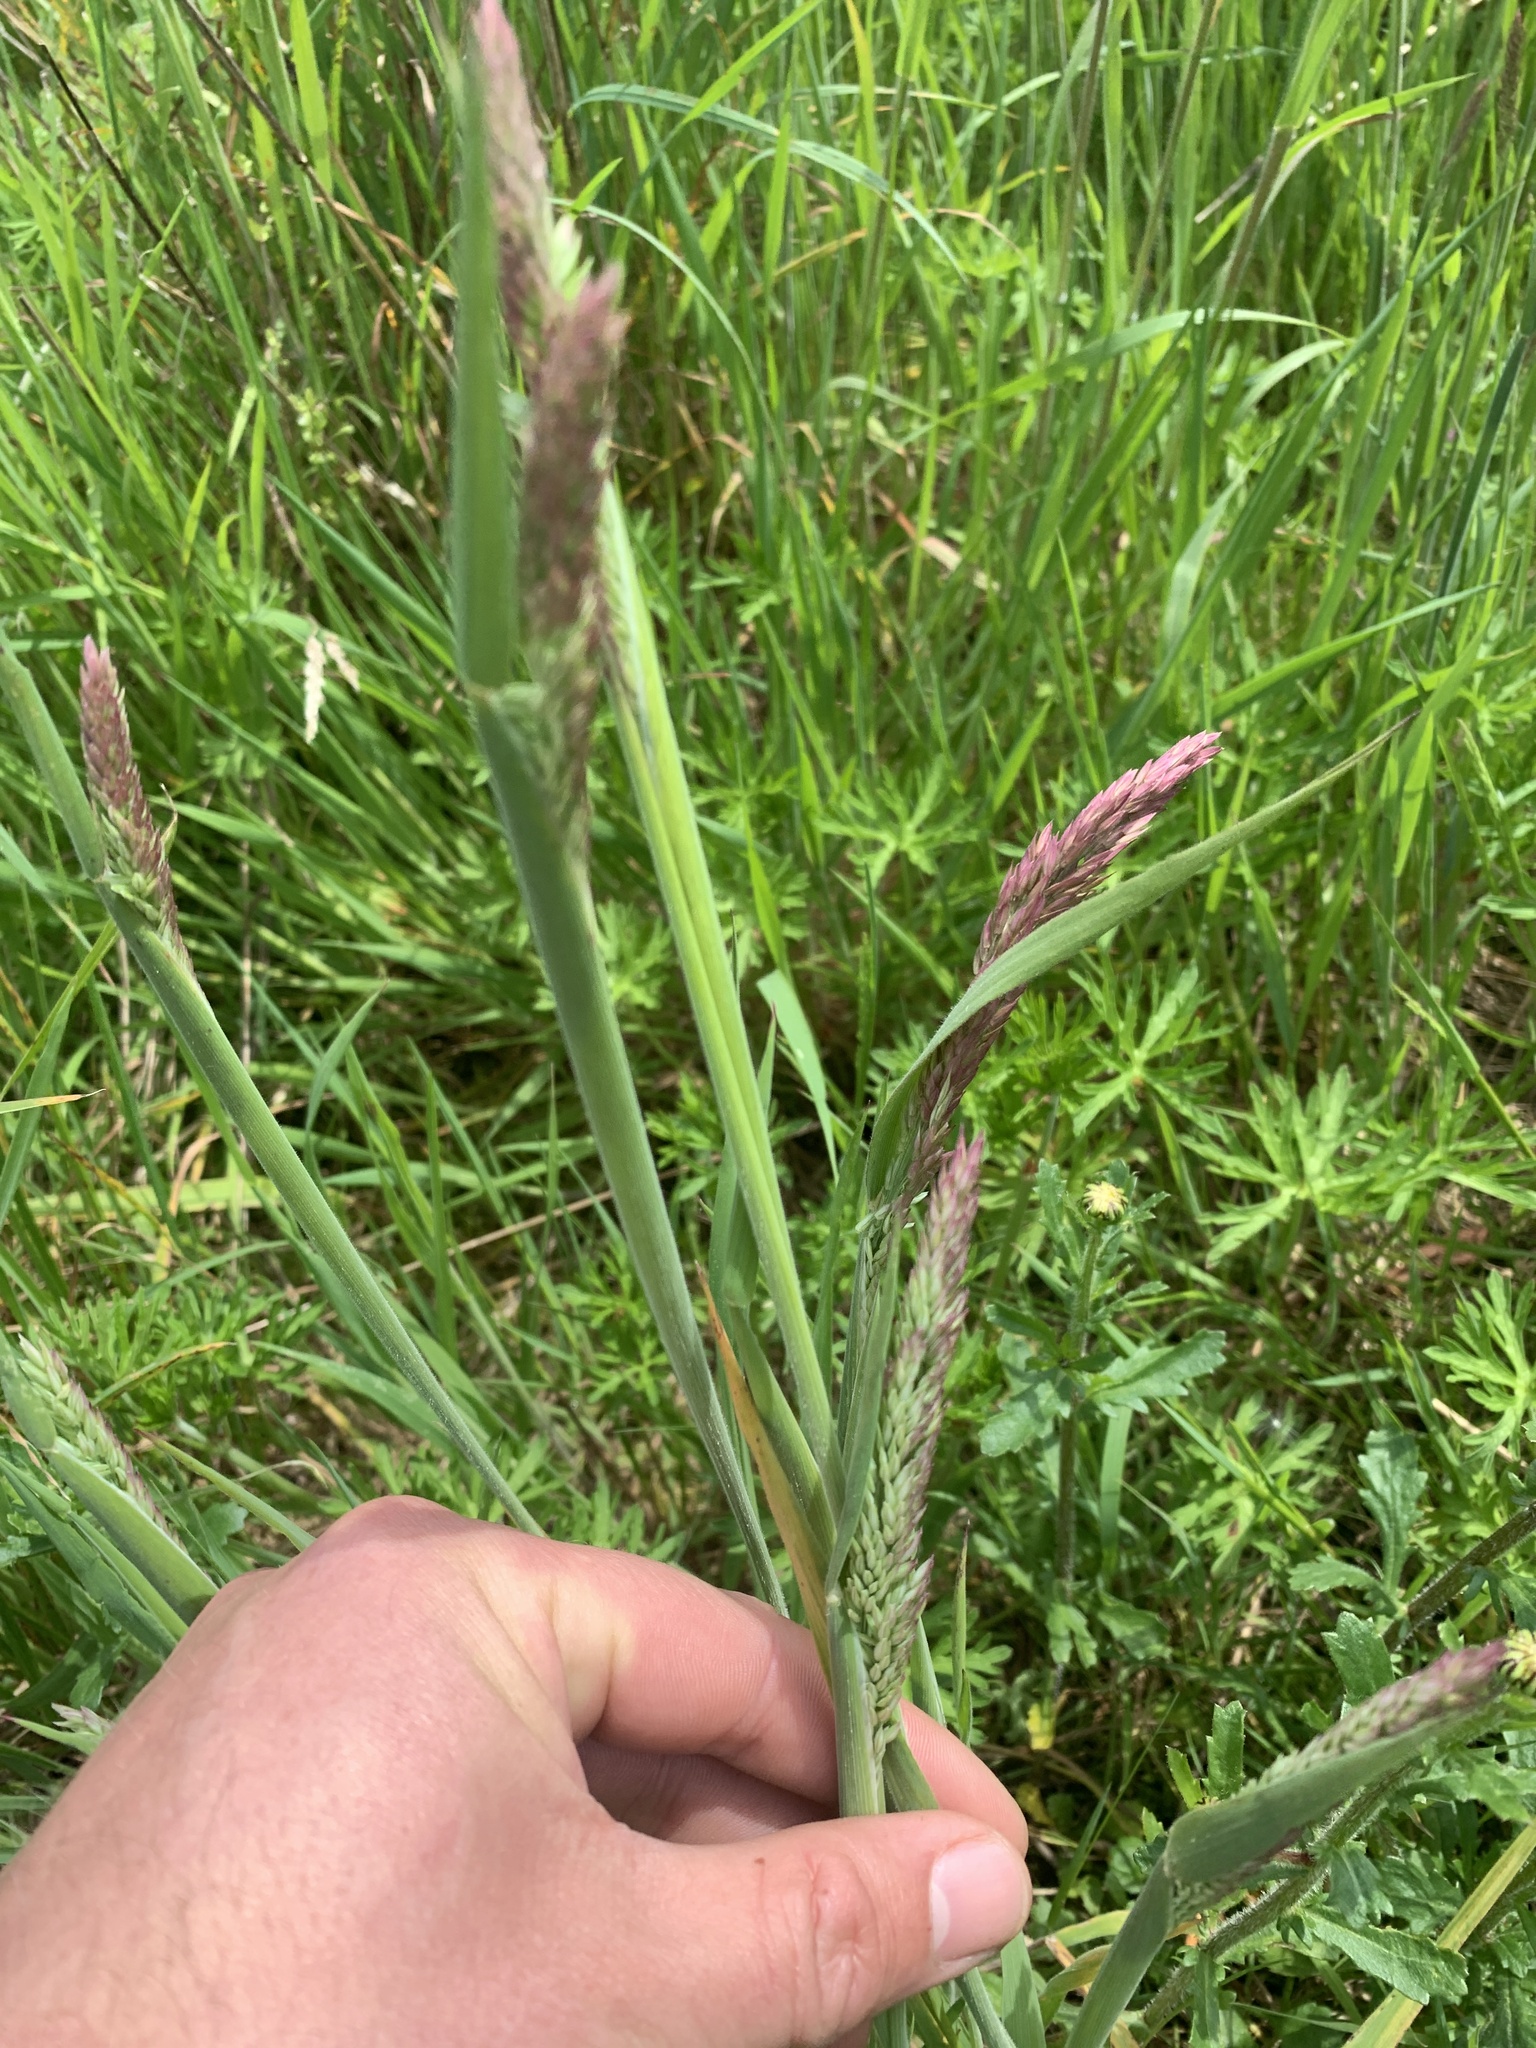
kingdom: Plantae
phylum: Tracheophyta
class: Liliopsida
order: Poales
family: Poaceae
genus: Holcus
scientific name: Holcus lanatus
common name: Yorkshire-fog
